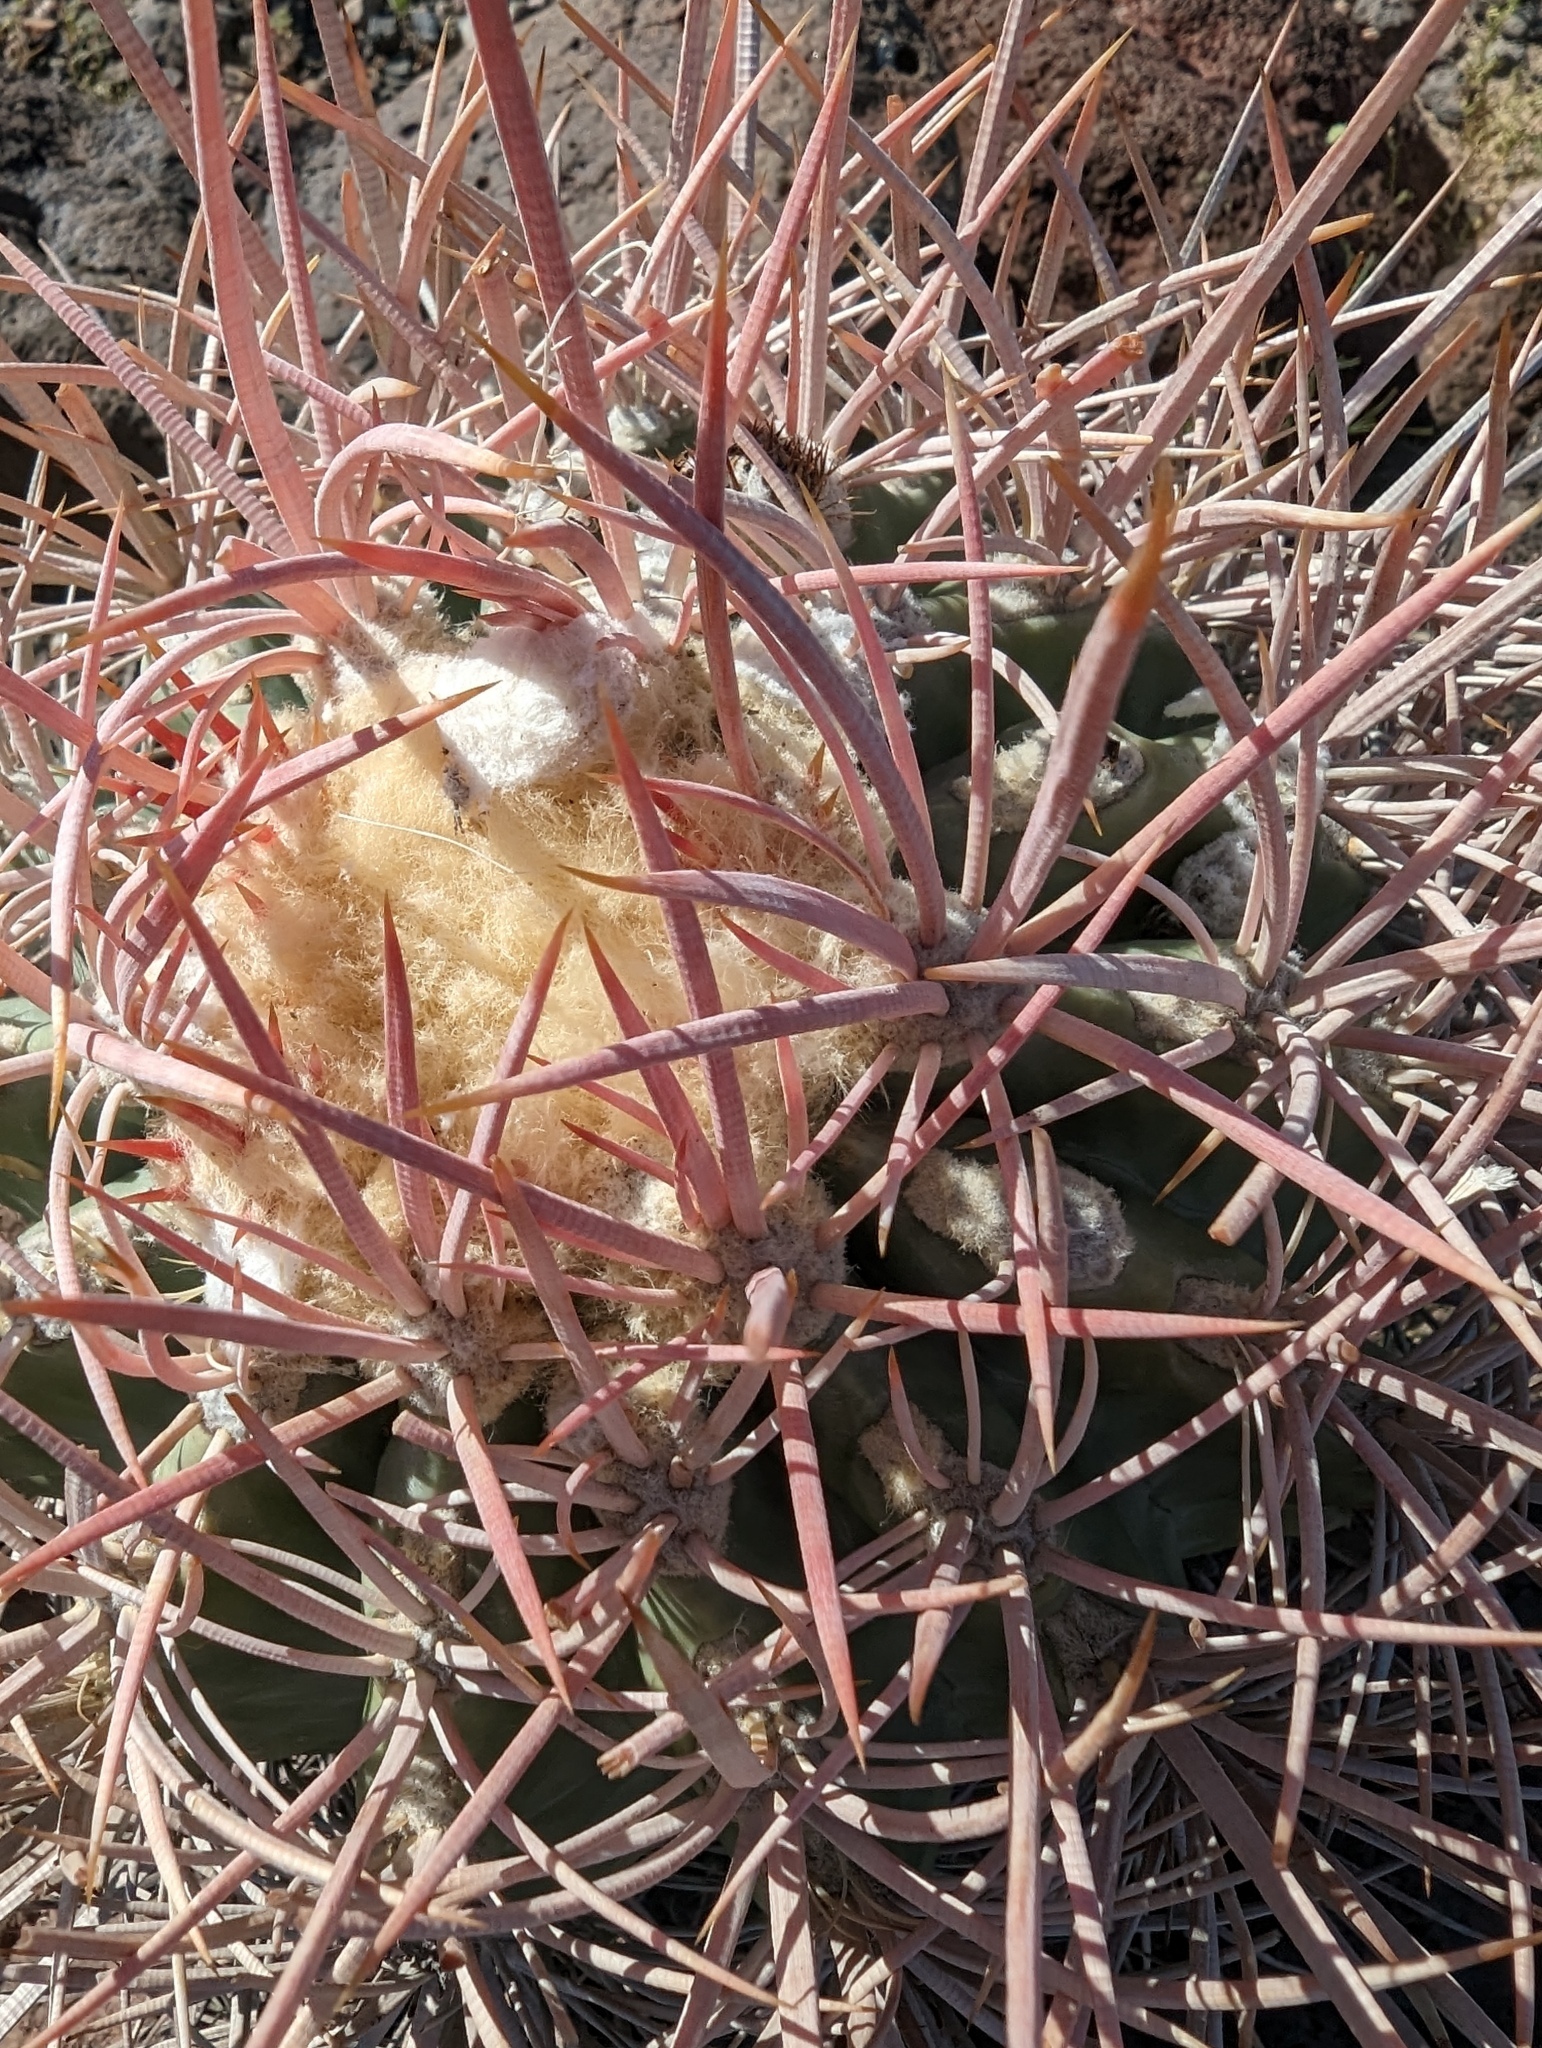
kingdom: Plantae
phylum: Tracheophyta
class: Magnoliopsida
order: Caryophyllales
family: Cactaceae
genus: Echinocactus
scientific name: Echinocactus polycephalus
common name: Cottontop cactus
